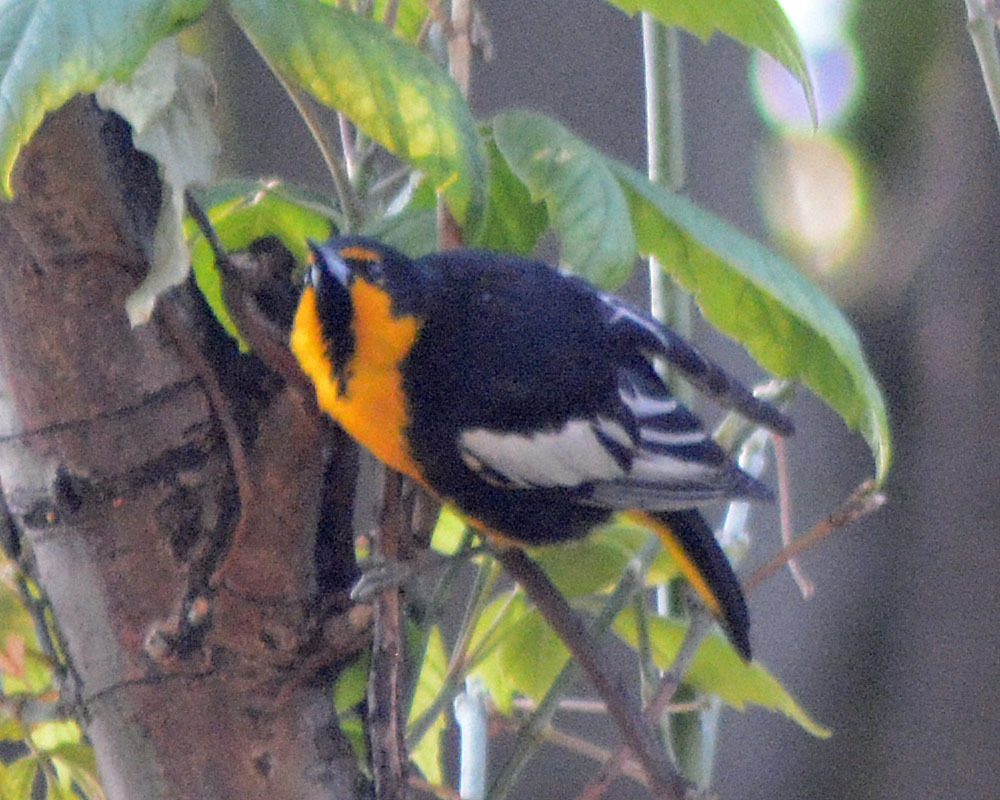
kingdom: Animalia
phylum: Chordata
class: Aves
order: Passeriformes
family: Icteridae
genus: Icterus
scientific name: Icterus abeillei
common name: Black-backed oriole
